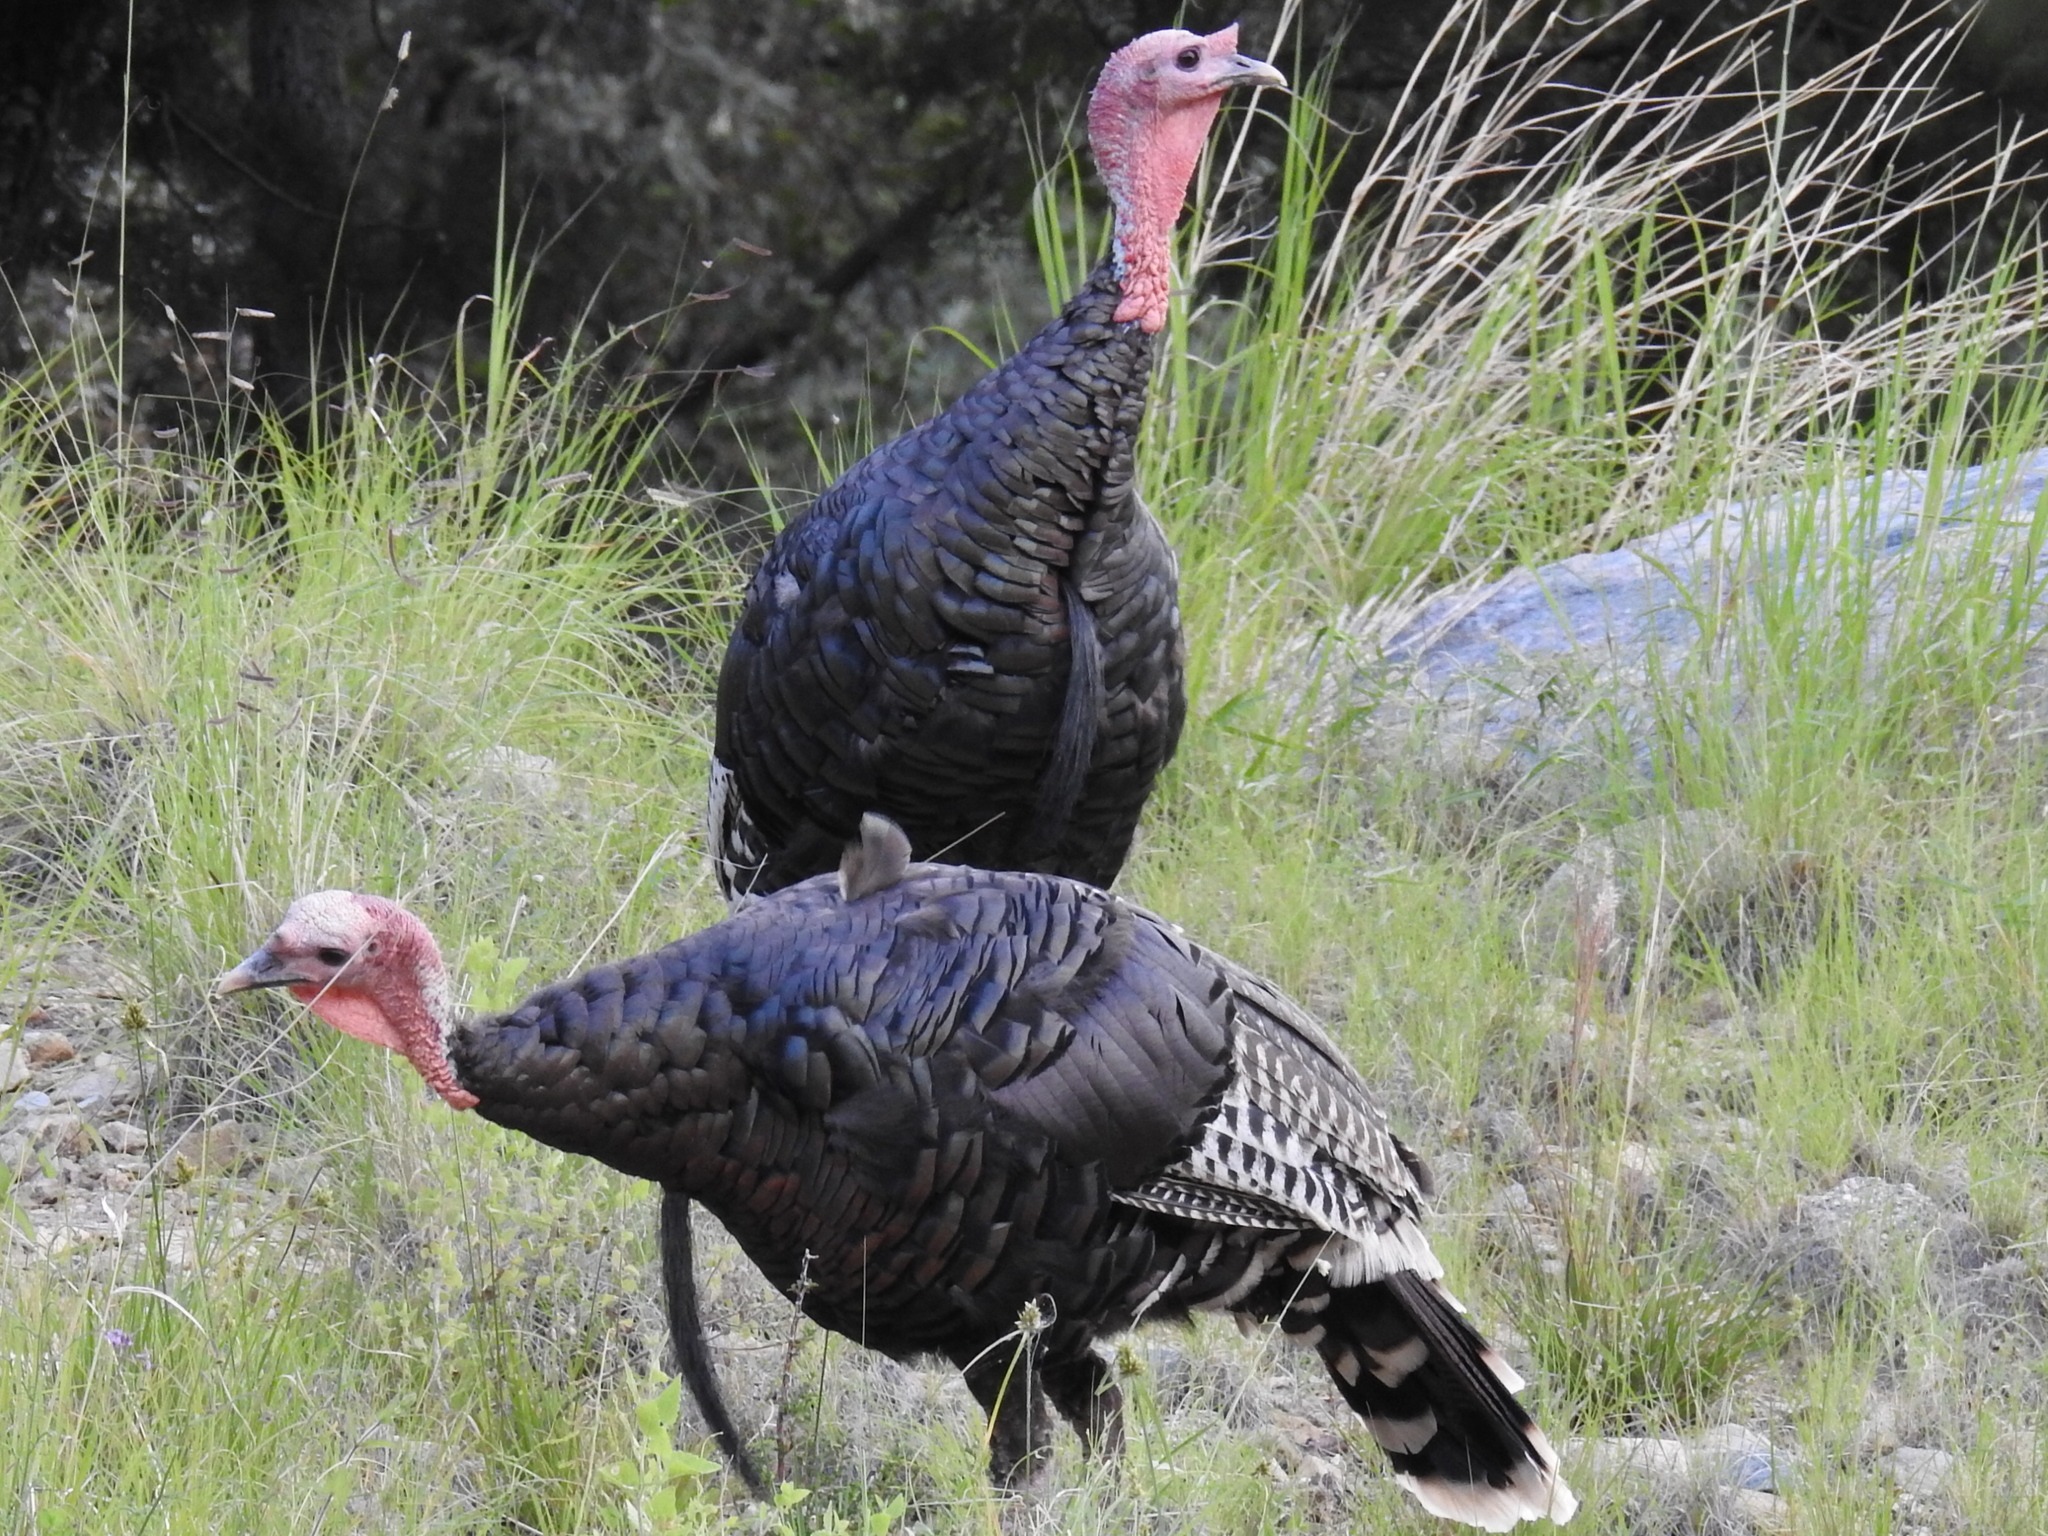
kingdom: Animalia
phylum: Chordata
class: Aves
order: Galliformes
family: Phasianidae
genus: Meleagris
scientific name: Meleagris gallopavo
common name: Wild turkey
